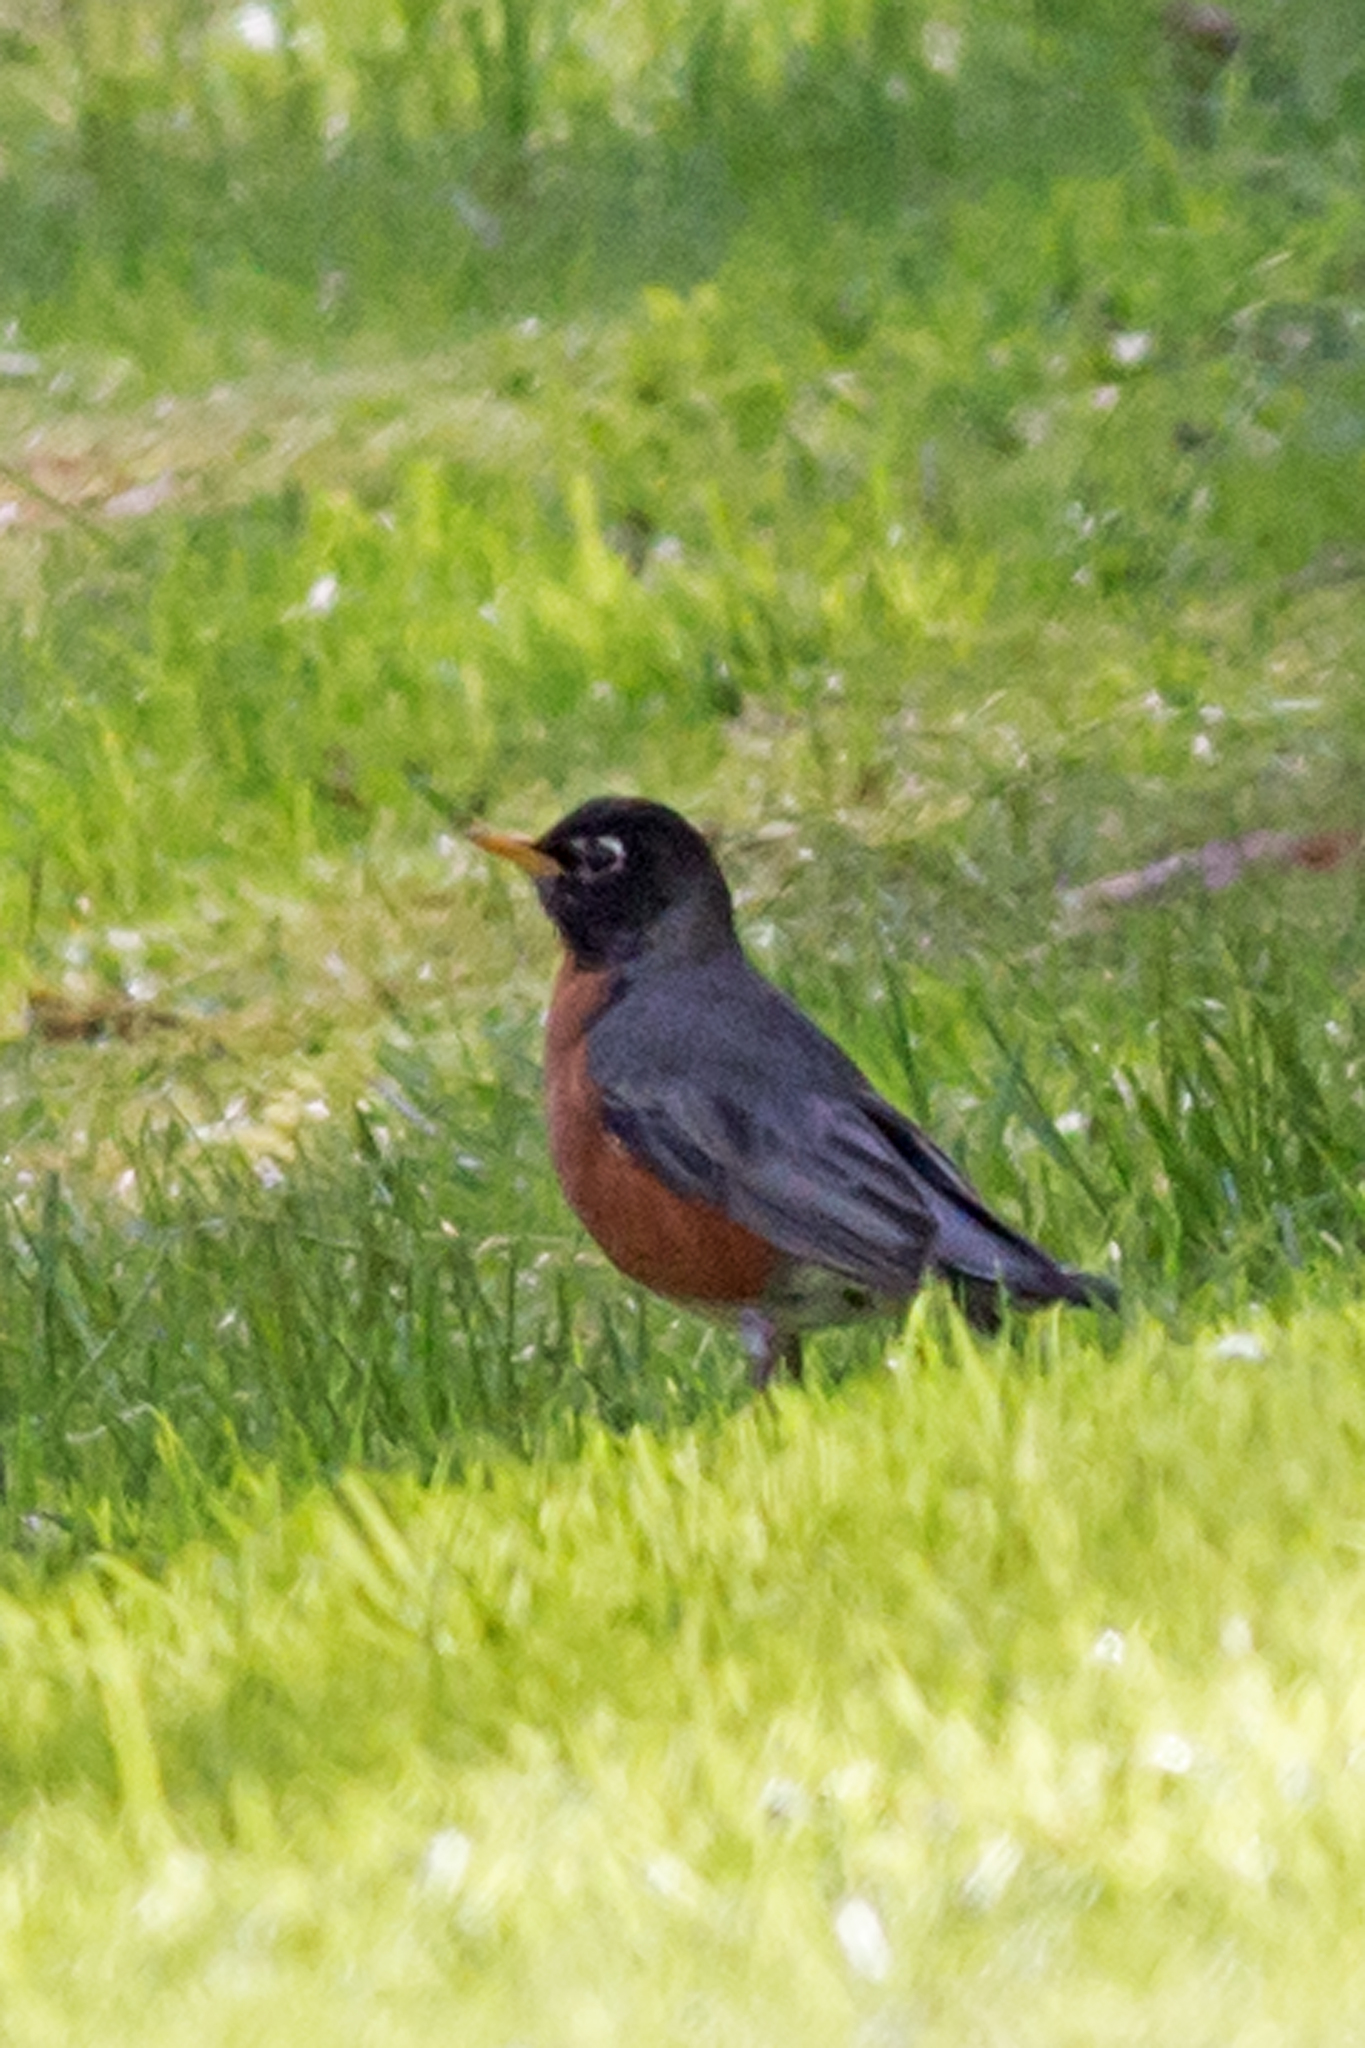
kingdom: Animalia
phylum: Chordata
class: Aves
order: Passeriformes
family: Turdidae
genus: Turdus
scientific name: Turdus migratorius
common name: American robin
